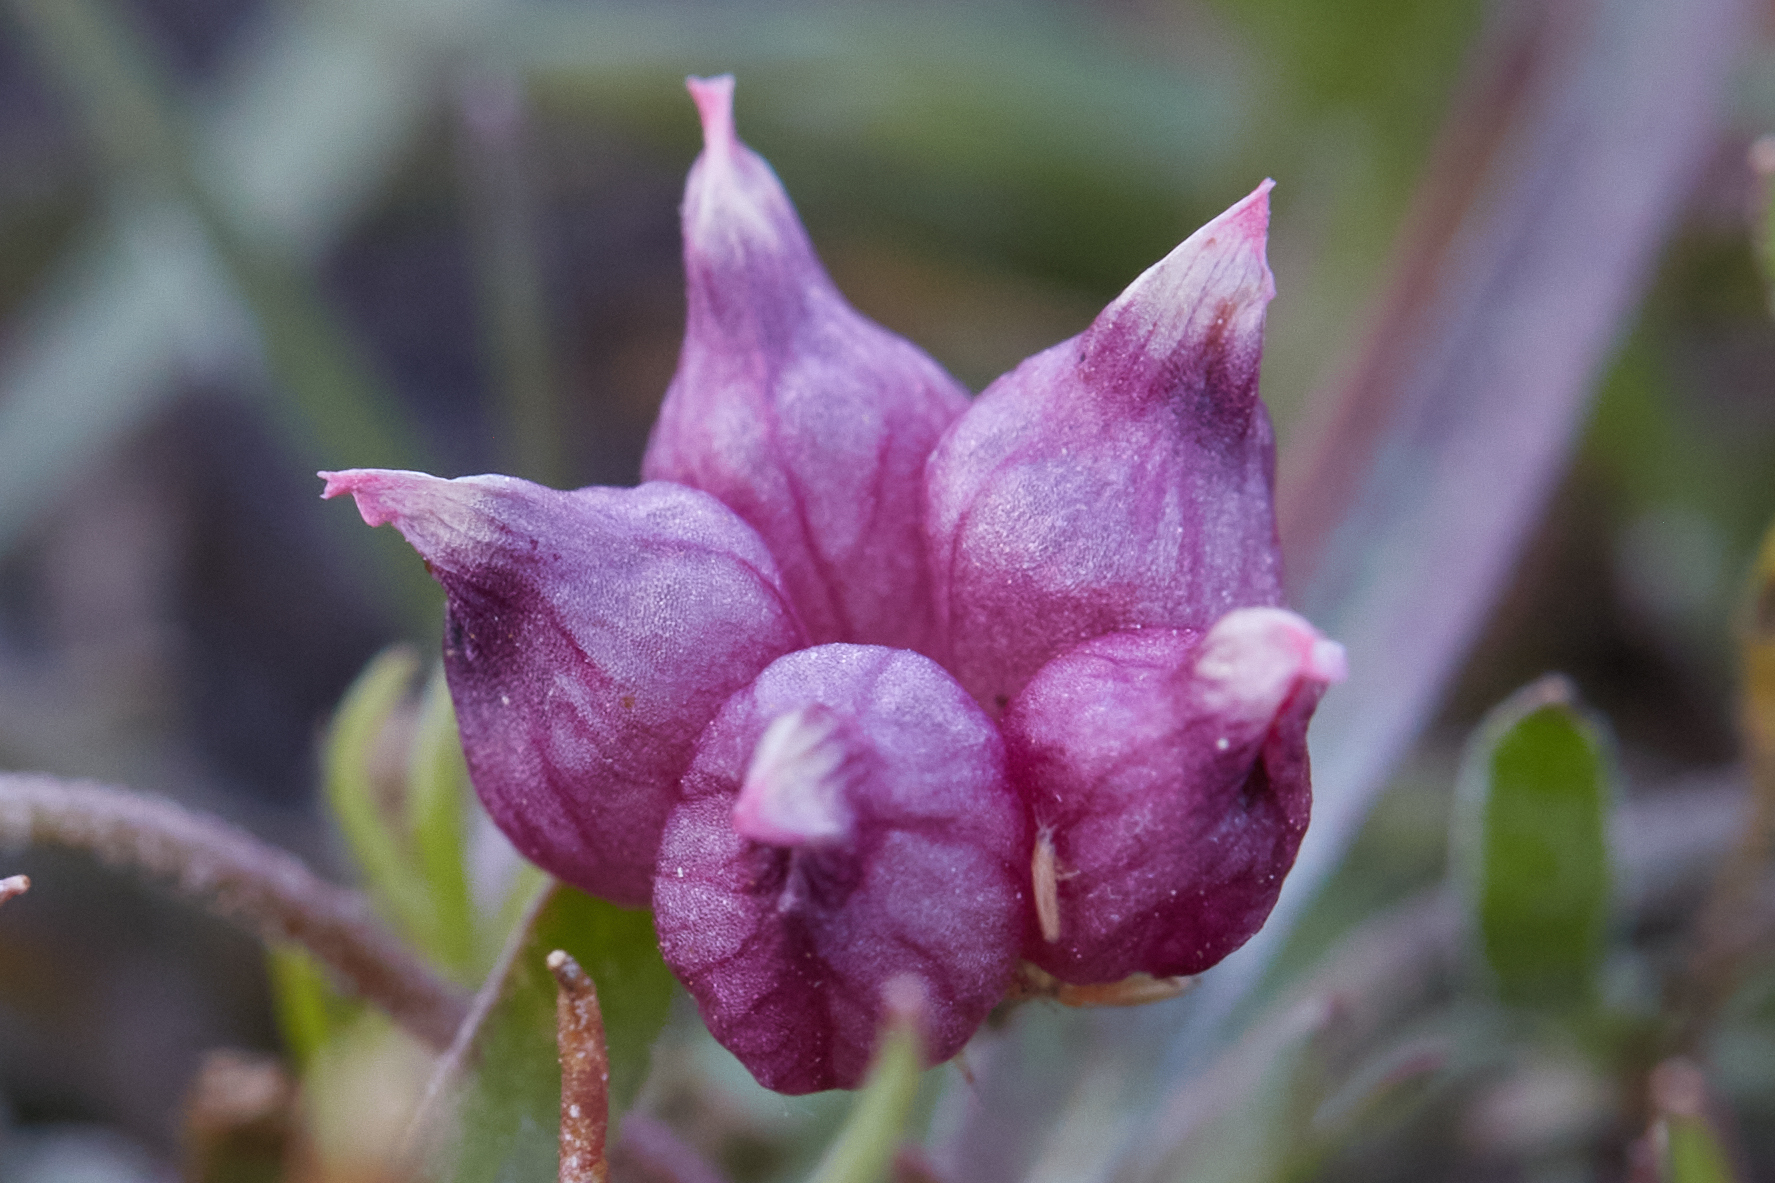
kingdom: Plantae
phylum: Tracheophyta
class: Magnoliopsida
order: Fabales
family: Fabaceae
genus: Trifolium
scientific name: Trifolium depauperatum
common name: Poverty clover
